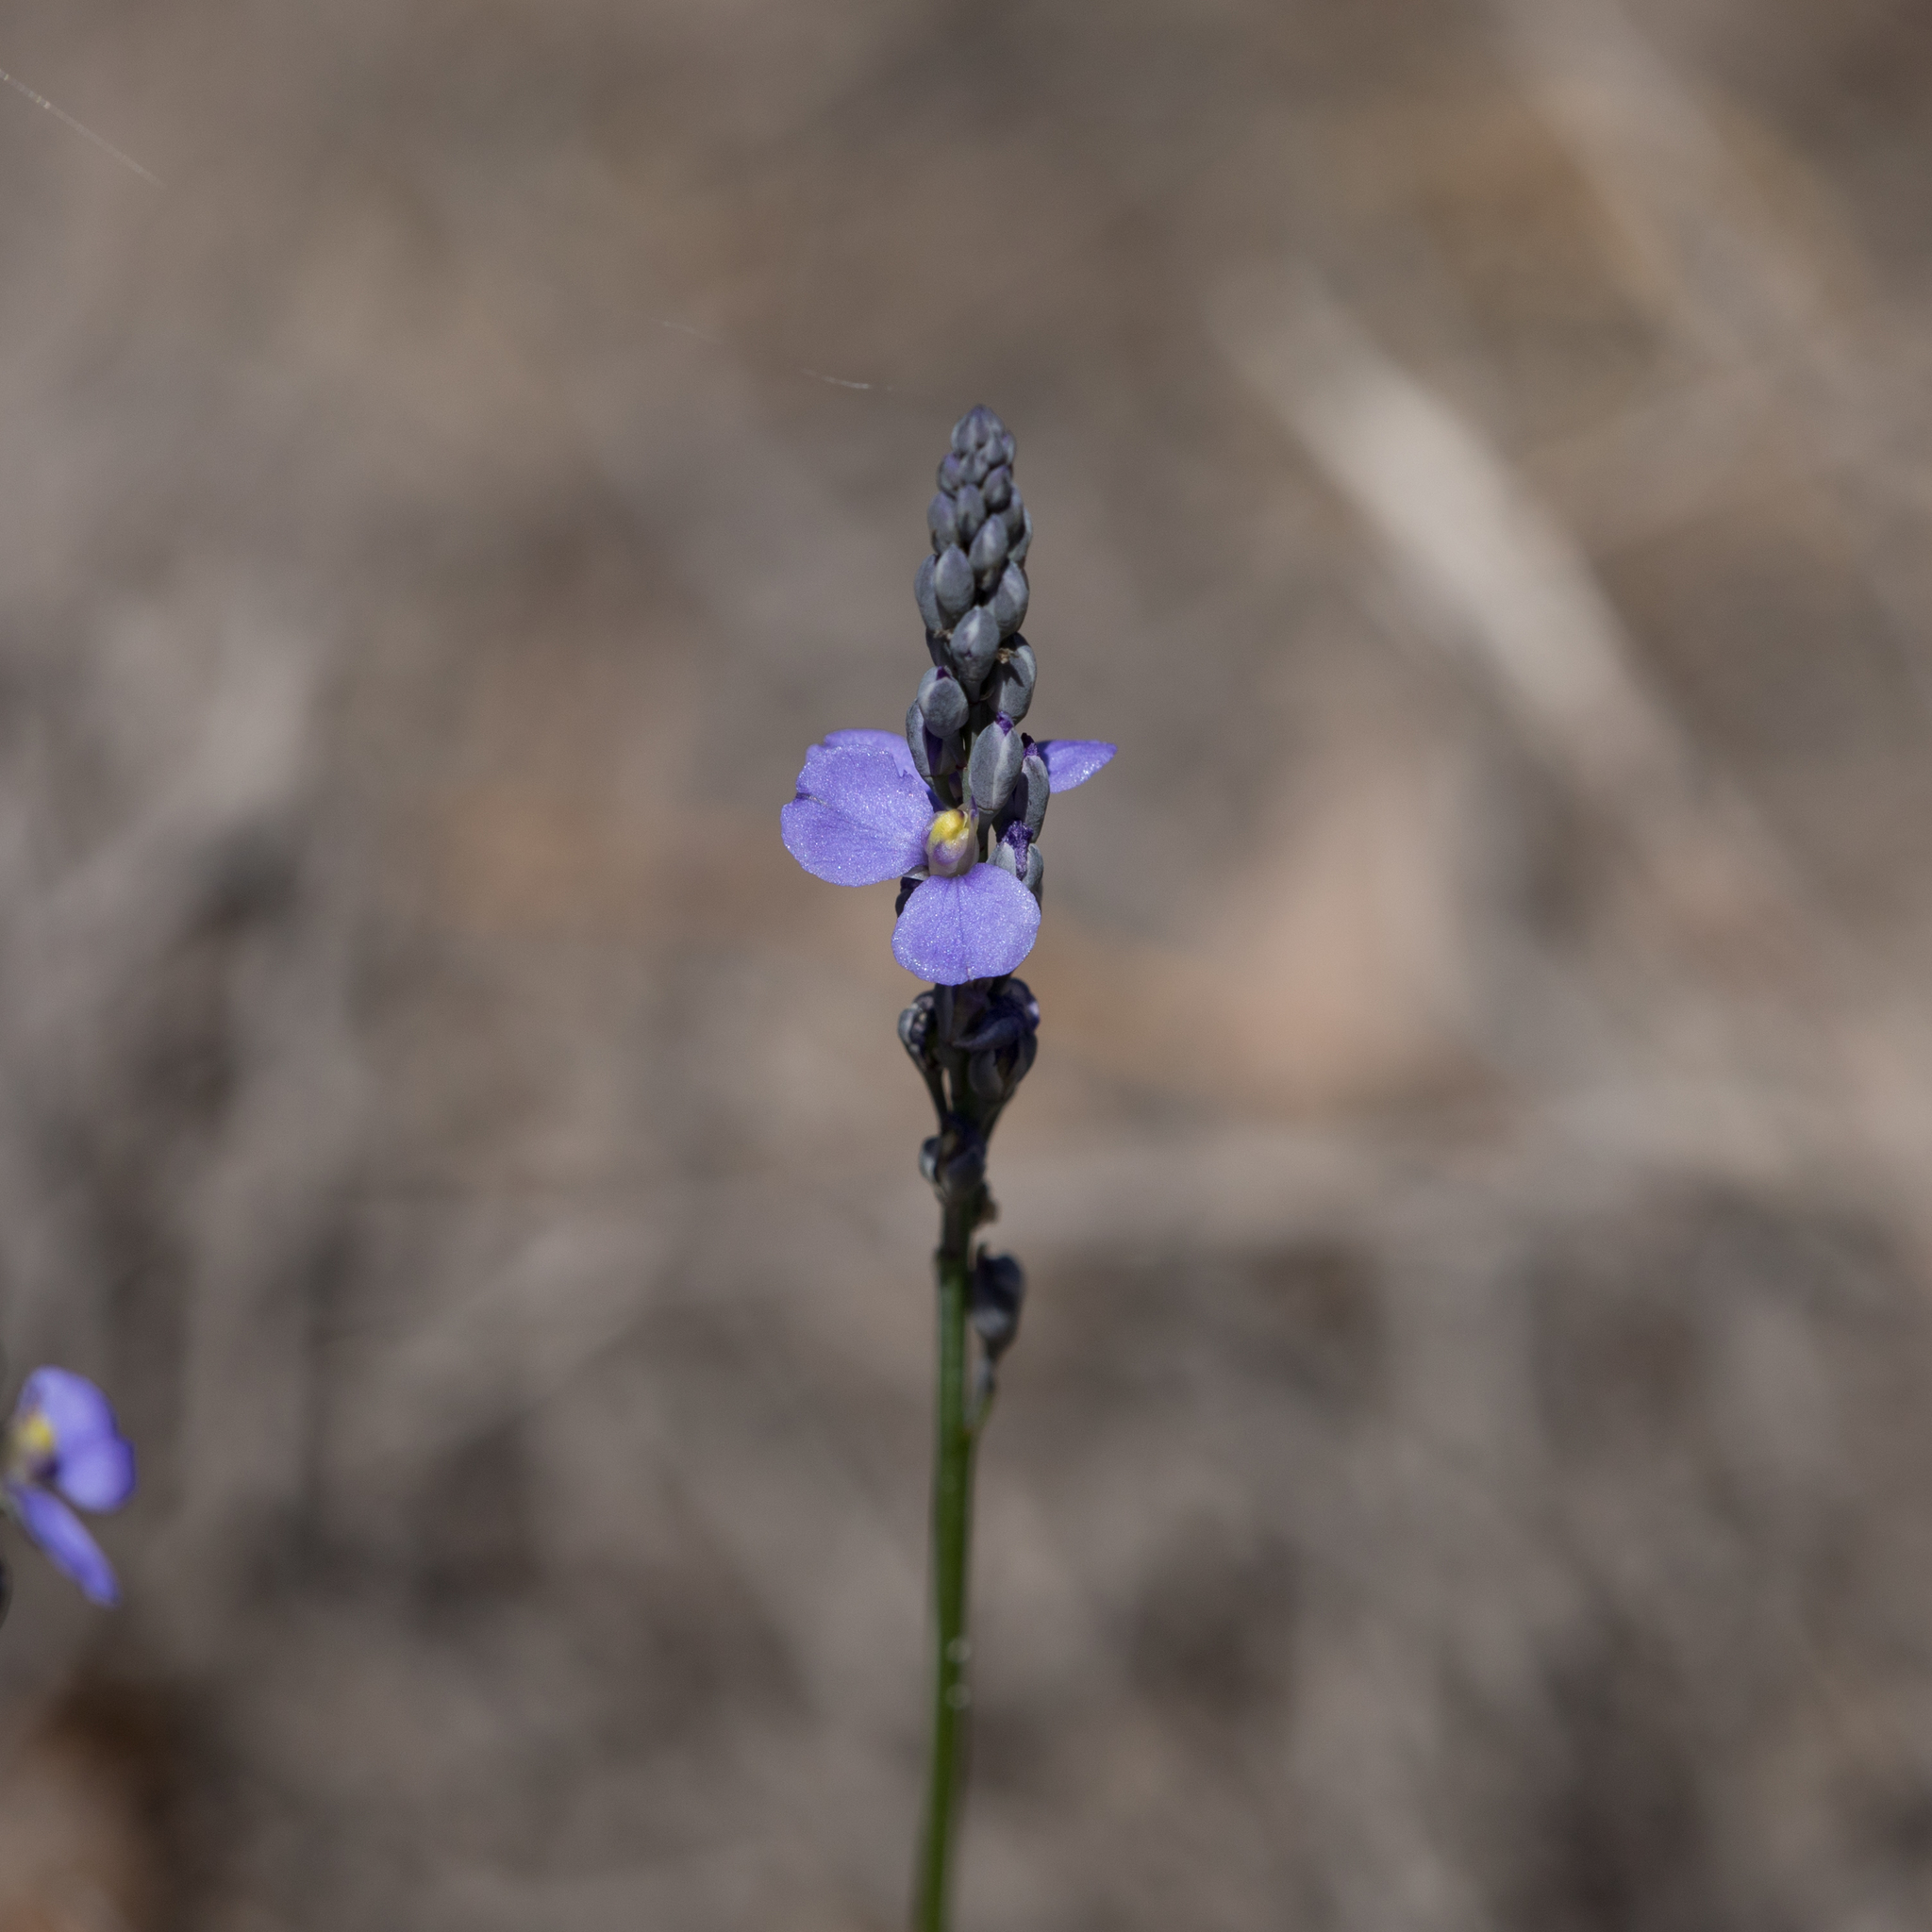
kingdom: Plantae
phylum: Tracheophyta
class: Magnoliopsida
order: Fabales
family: Polygalaceae
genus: Comesperma
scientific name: Comesperma calymega
